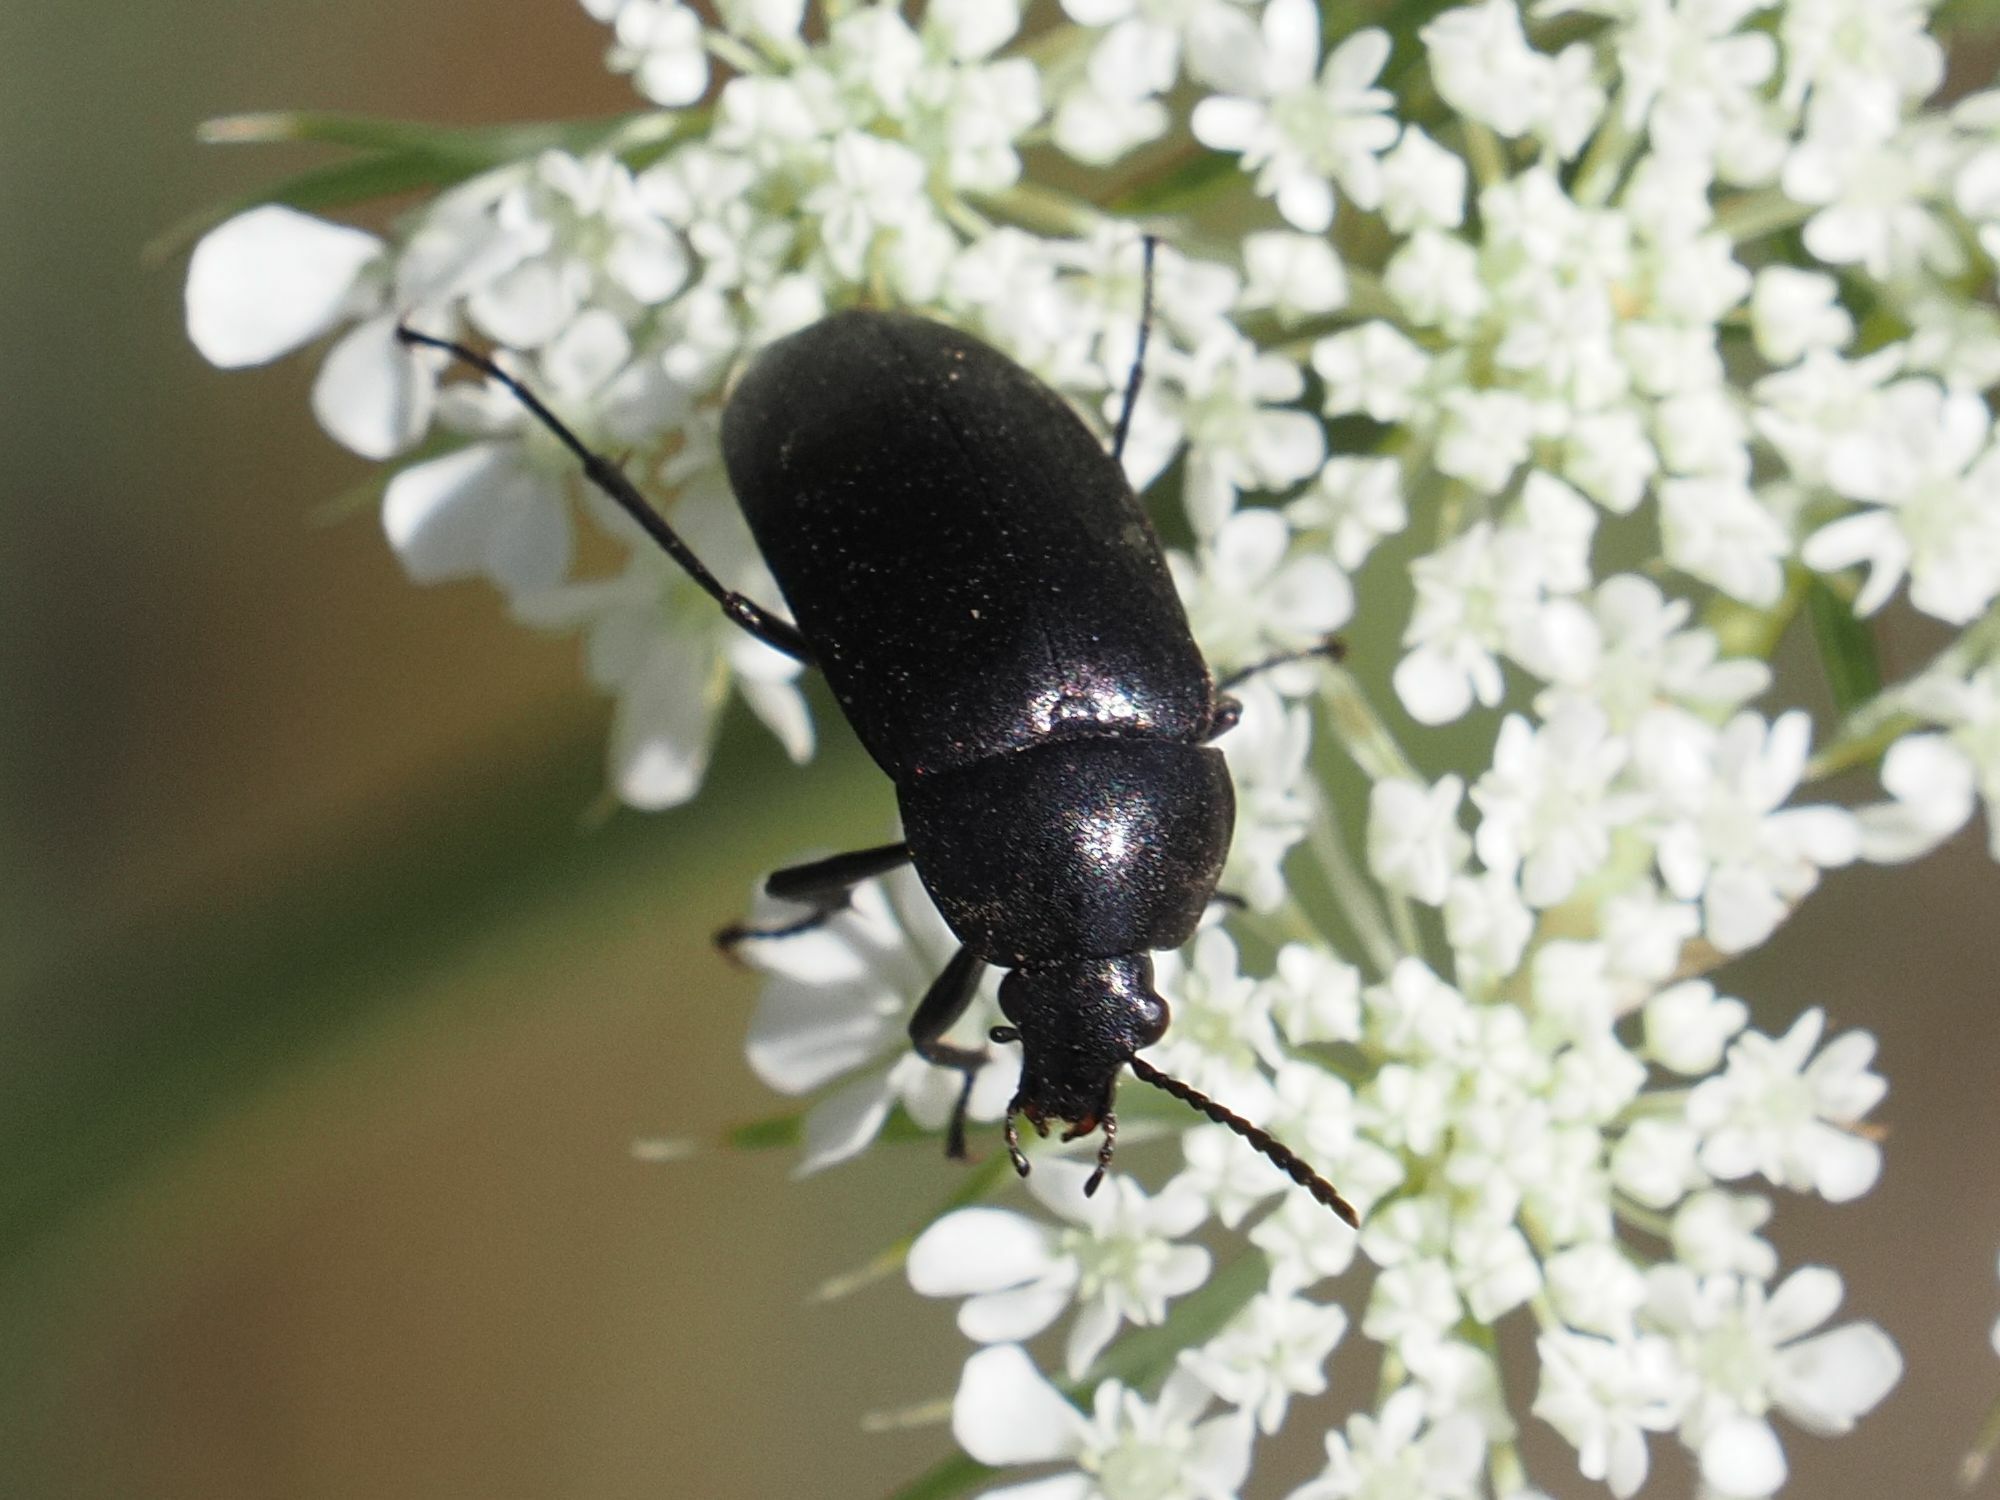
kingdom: Animalia
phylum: Arthropoda
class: Insecta
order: Coleoptera
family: Tenebrionidae
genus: Podonta
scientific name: Podonta nigrita
